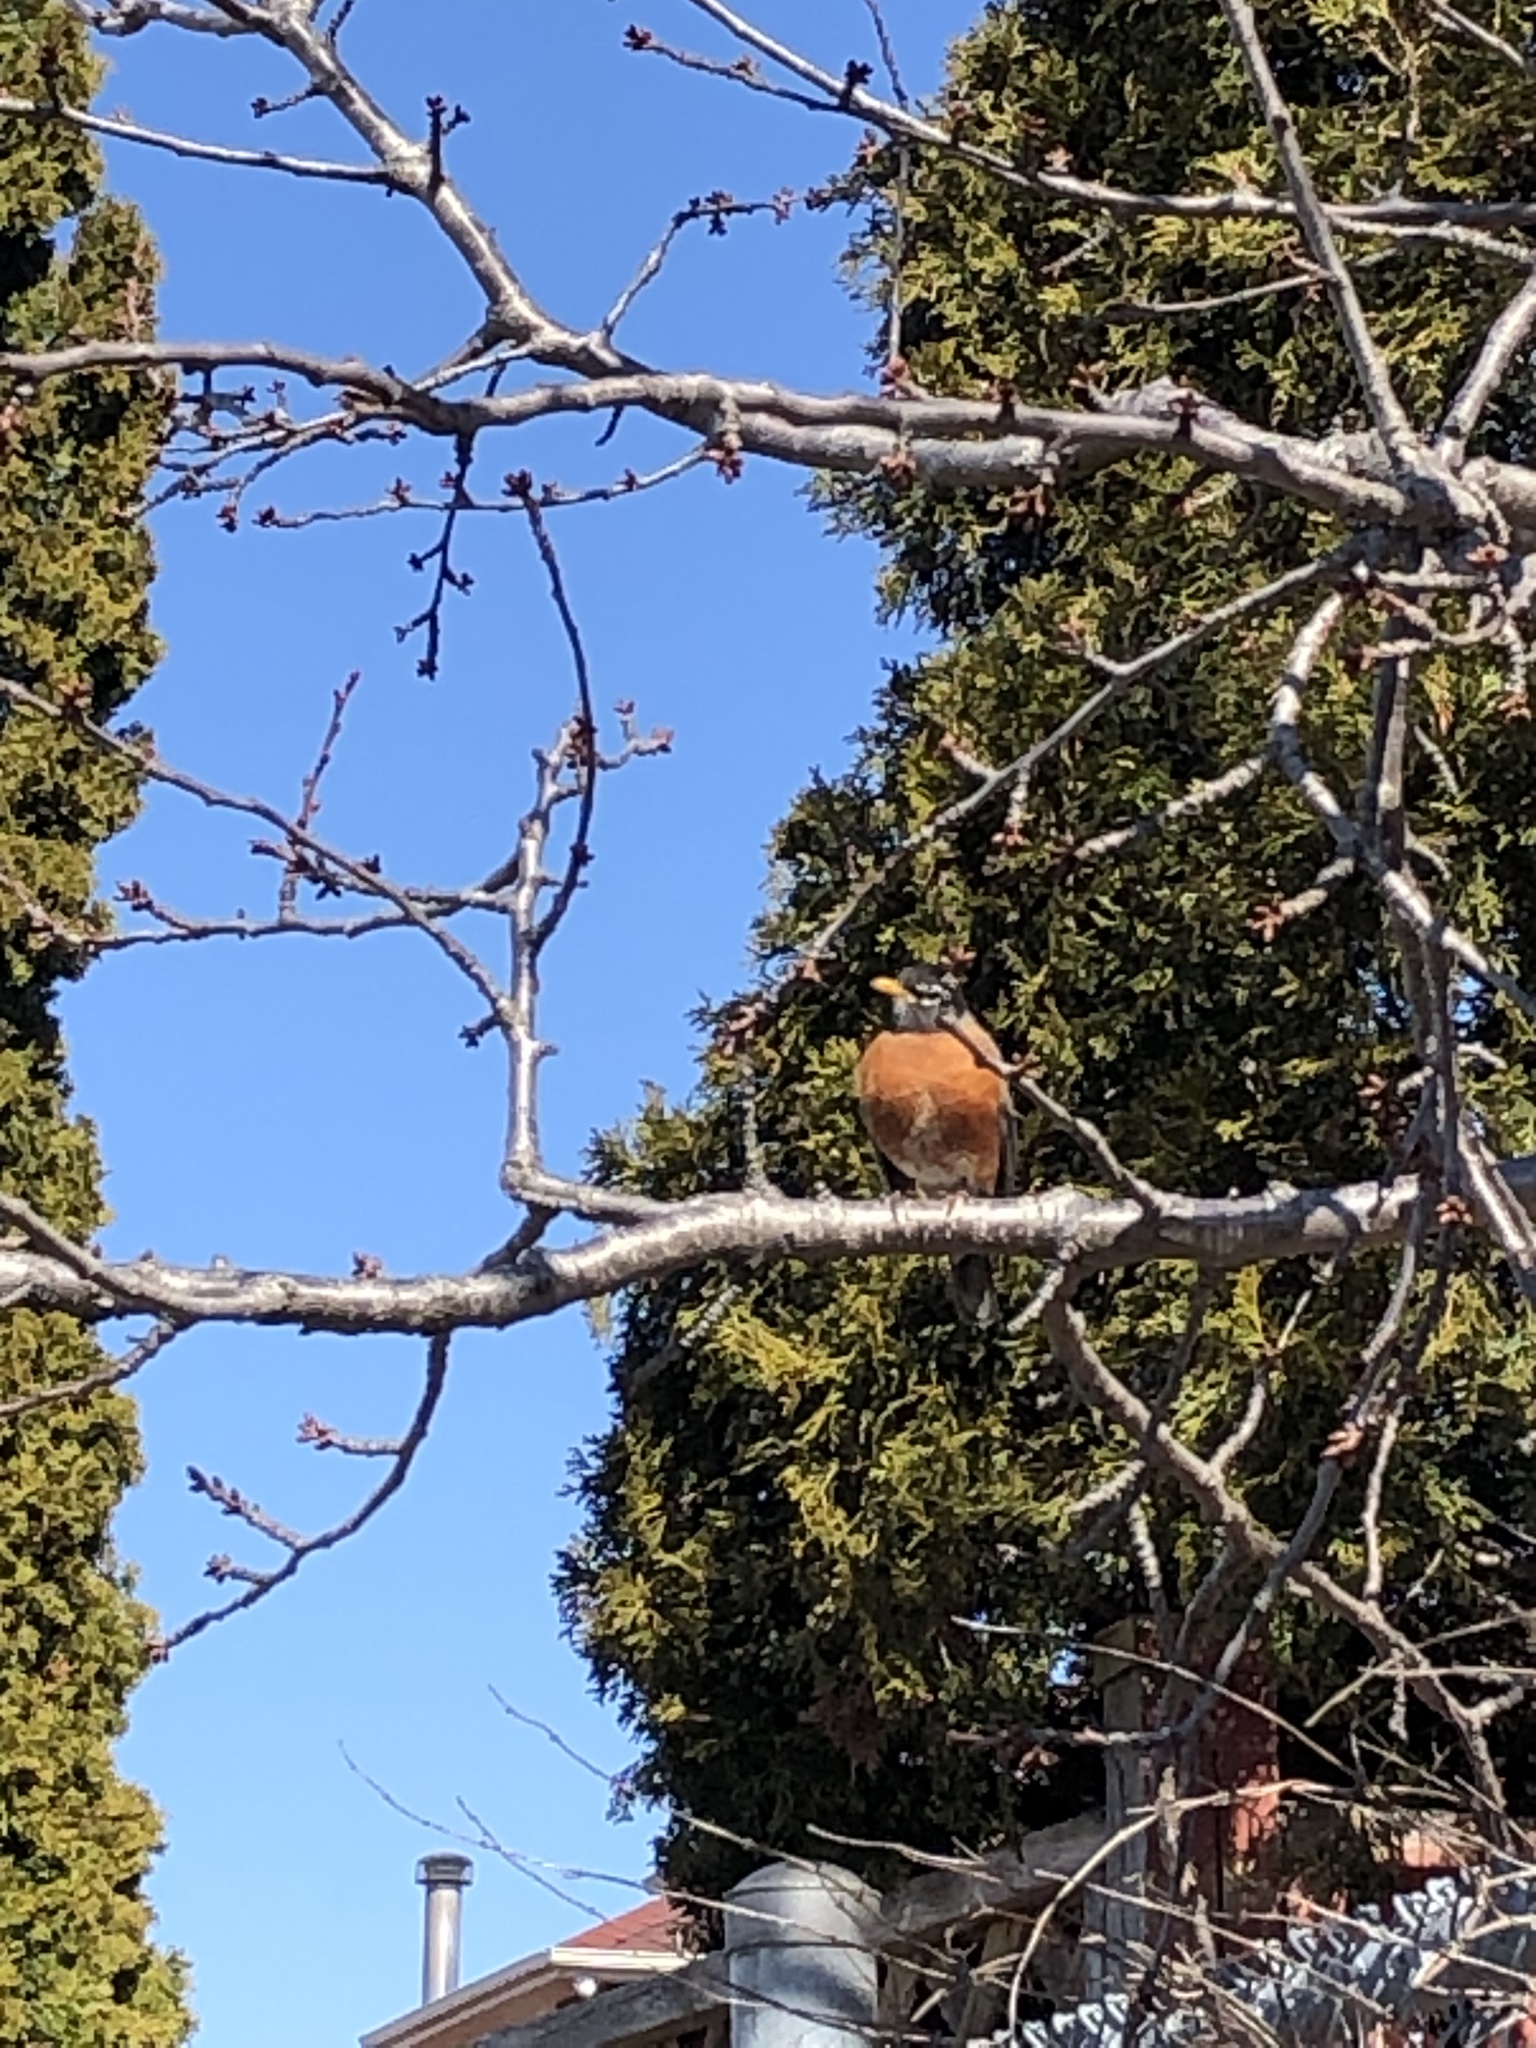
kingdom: Animalia
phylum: Chordata
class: Aves
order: Passeriformes
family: Turdidae
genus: Turdus
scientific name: Turdus migratorius
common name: American robin
